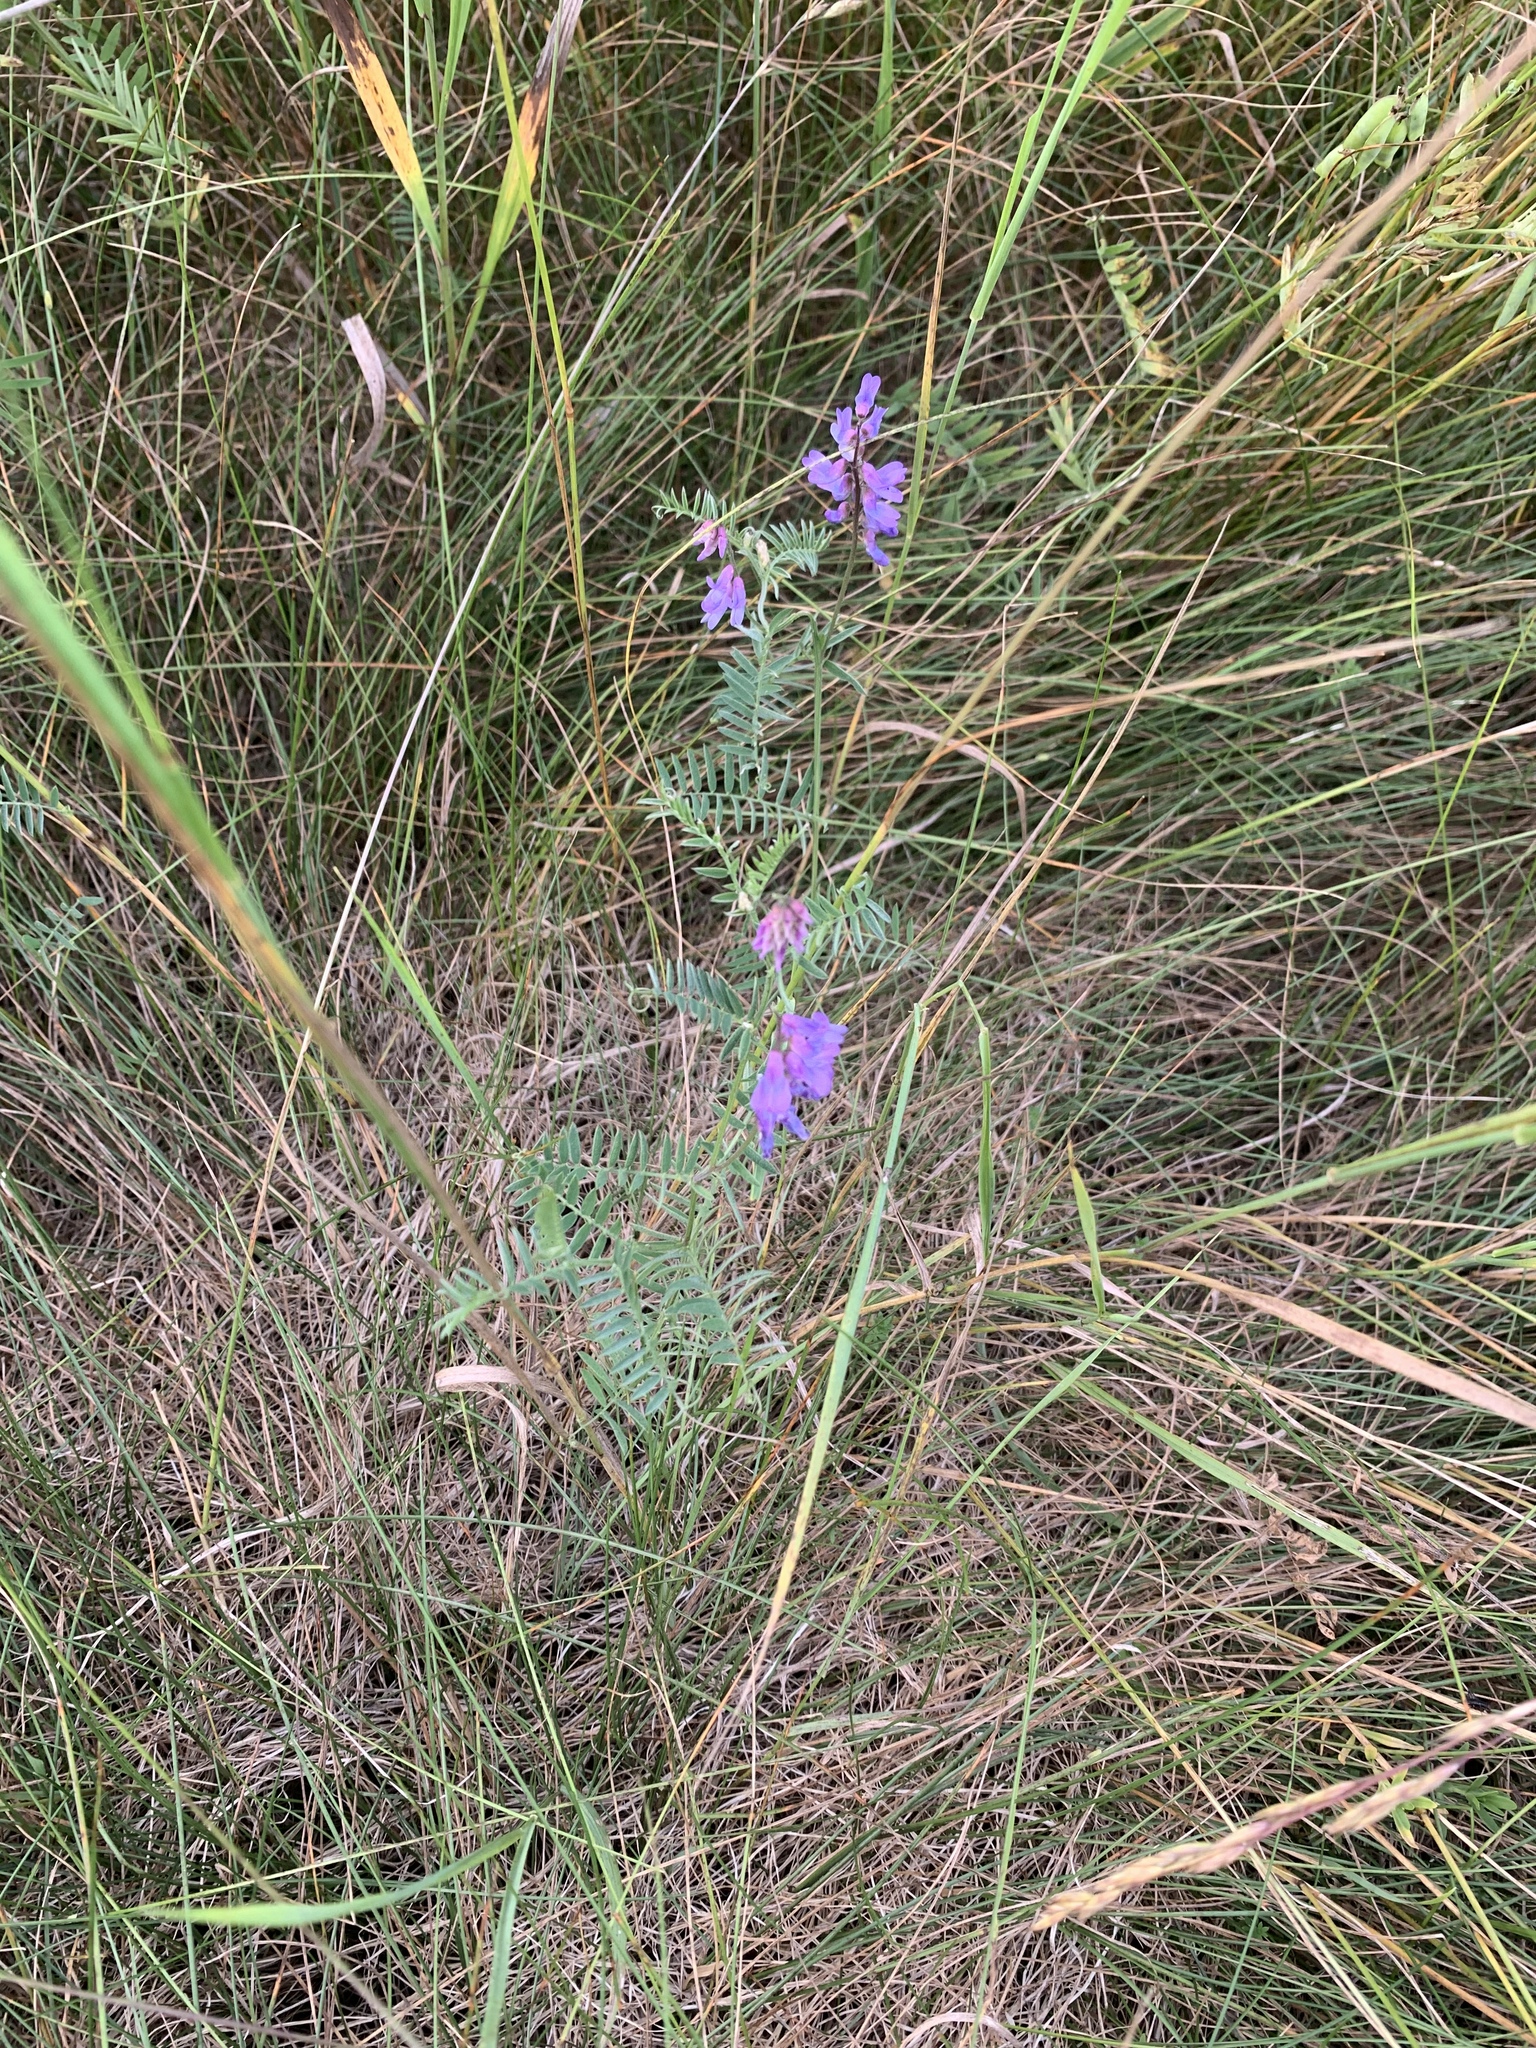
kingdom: Plantae
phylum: Tracheophyta
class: Magnoliopsida
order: Fabales
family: Fabaceae
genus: Vicia
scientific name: Vicia cracca
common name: Bird vetch
